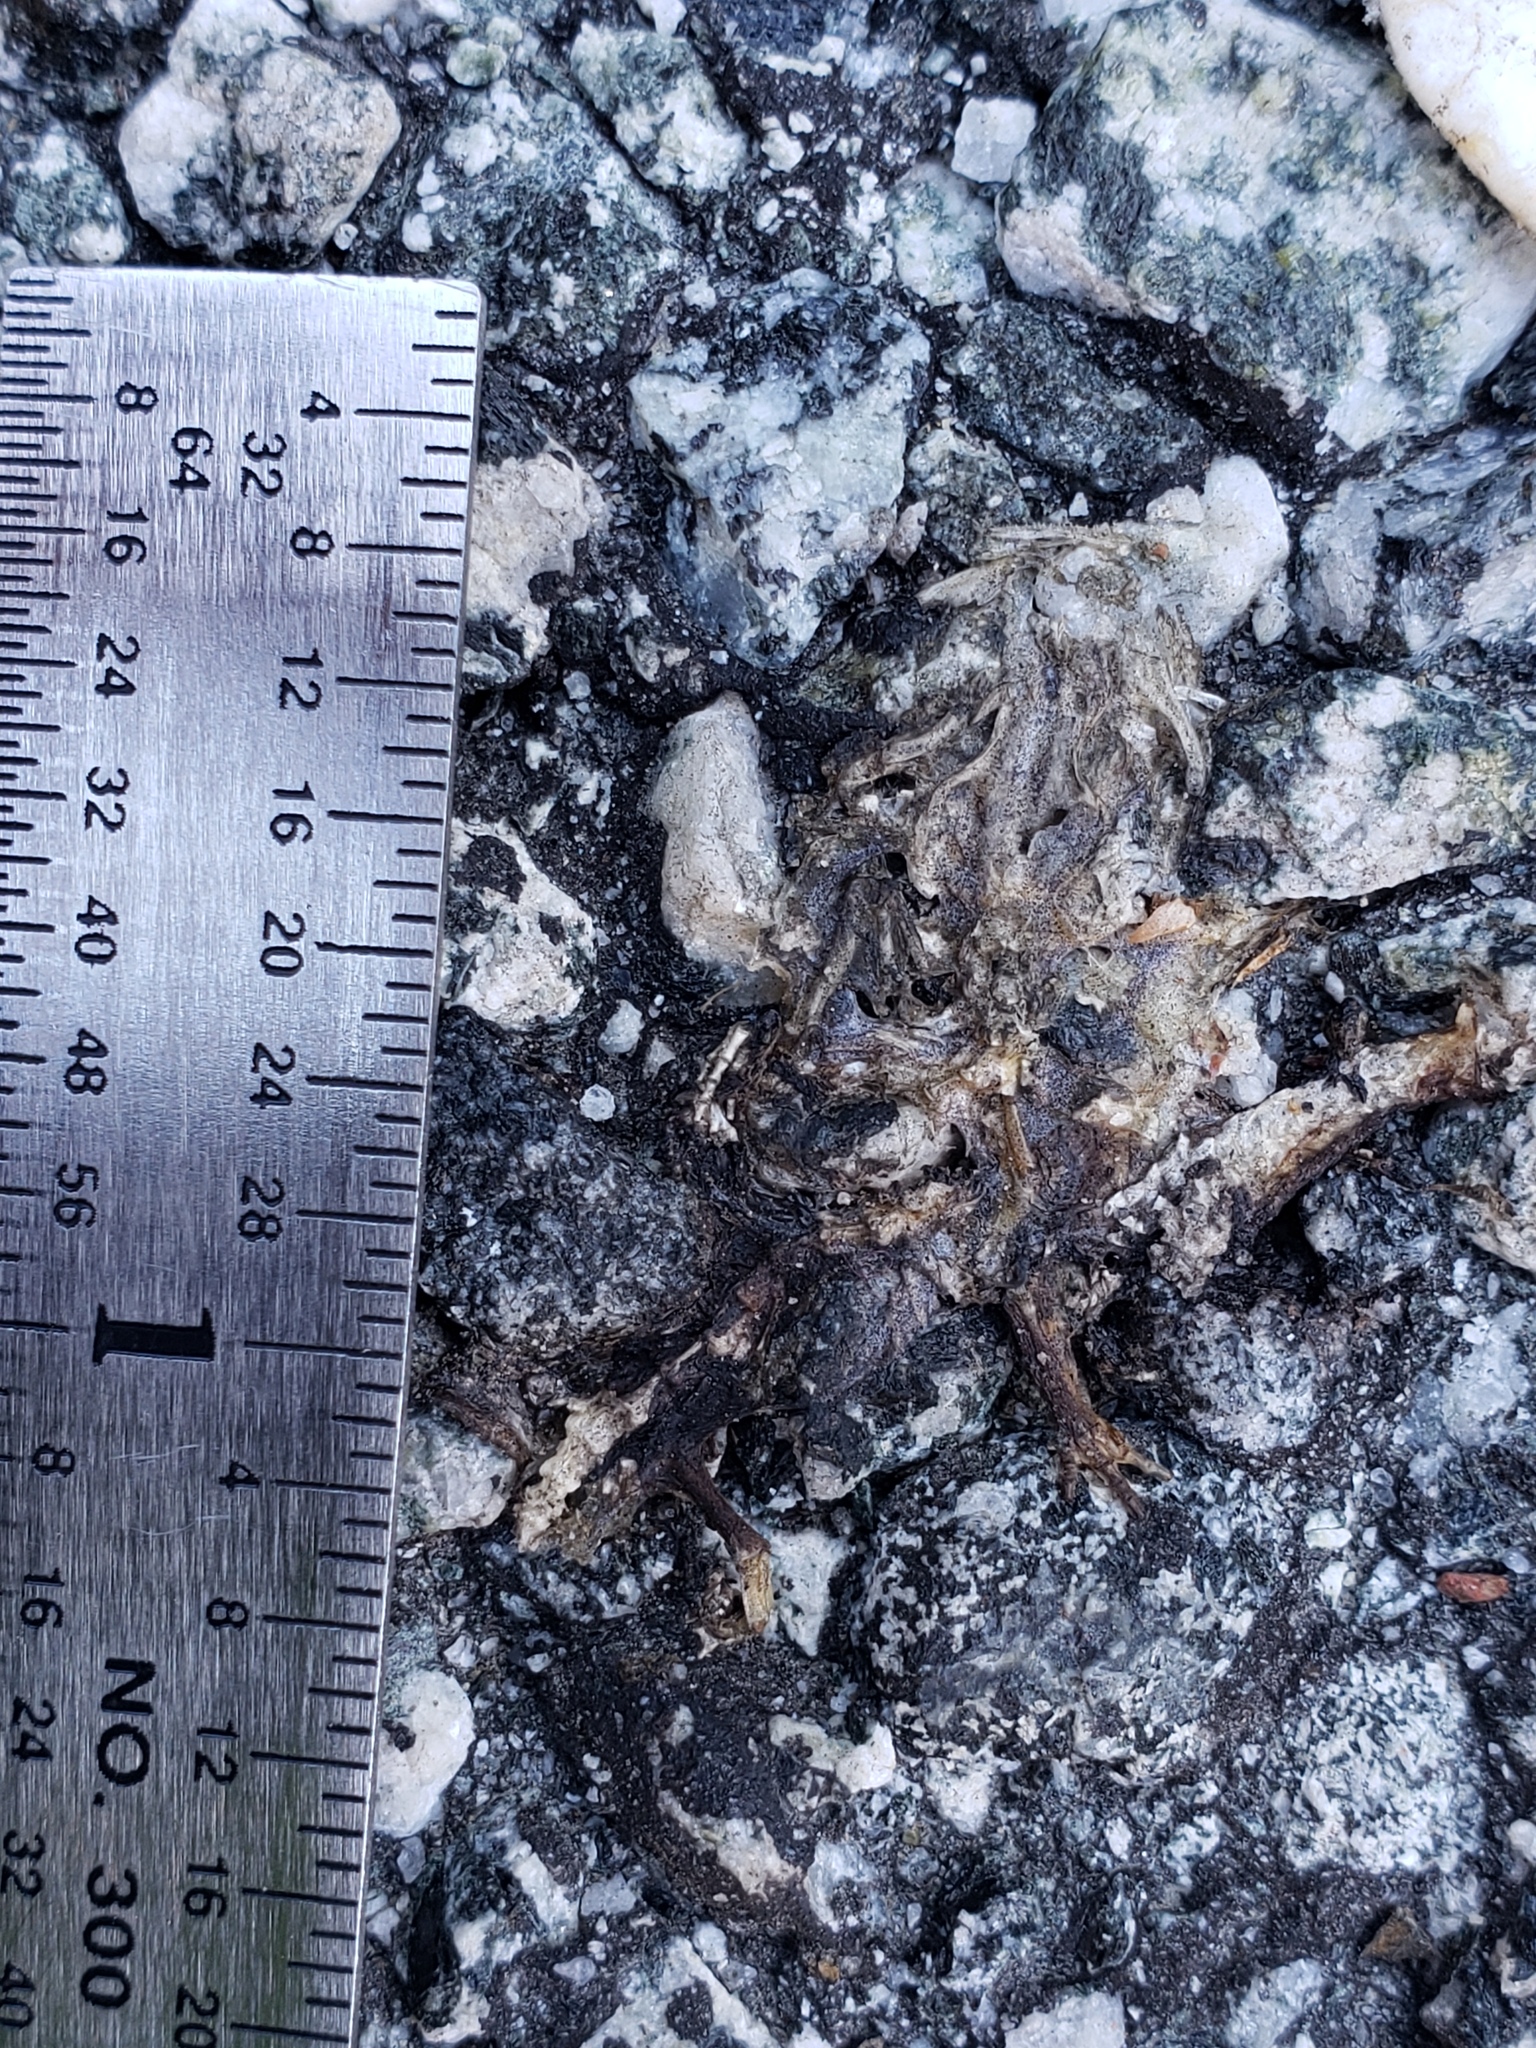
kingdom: Animalia
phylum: Chordata
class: Amphibia
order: Caudata
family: Salamandridae
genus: Taricha
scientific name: Taricha
